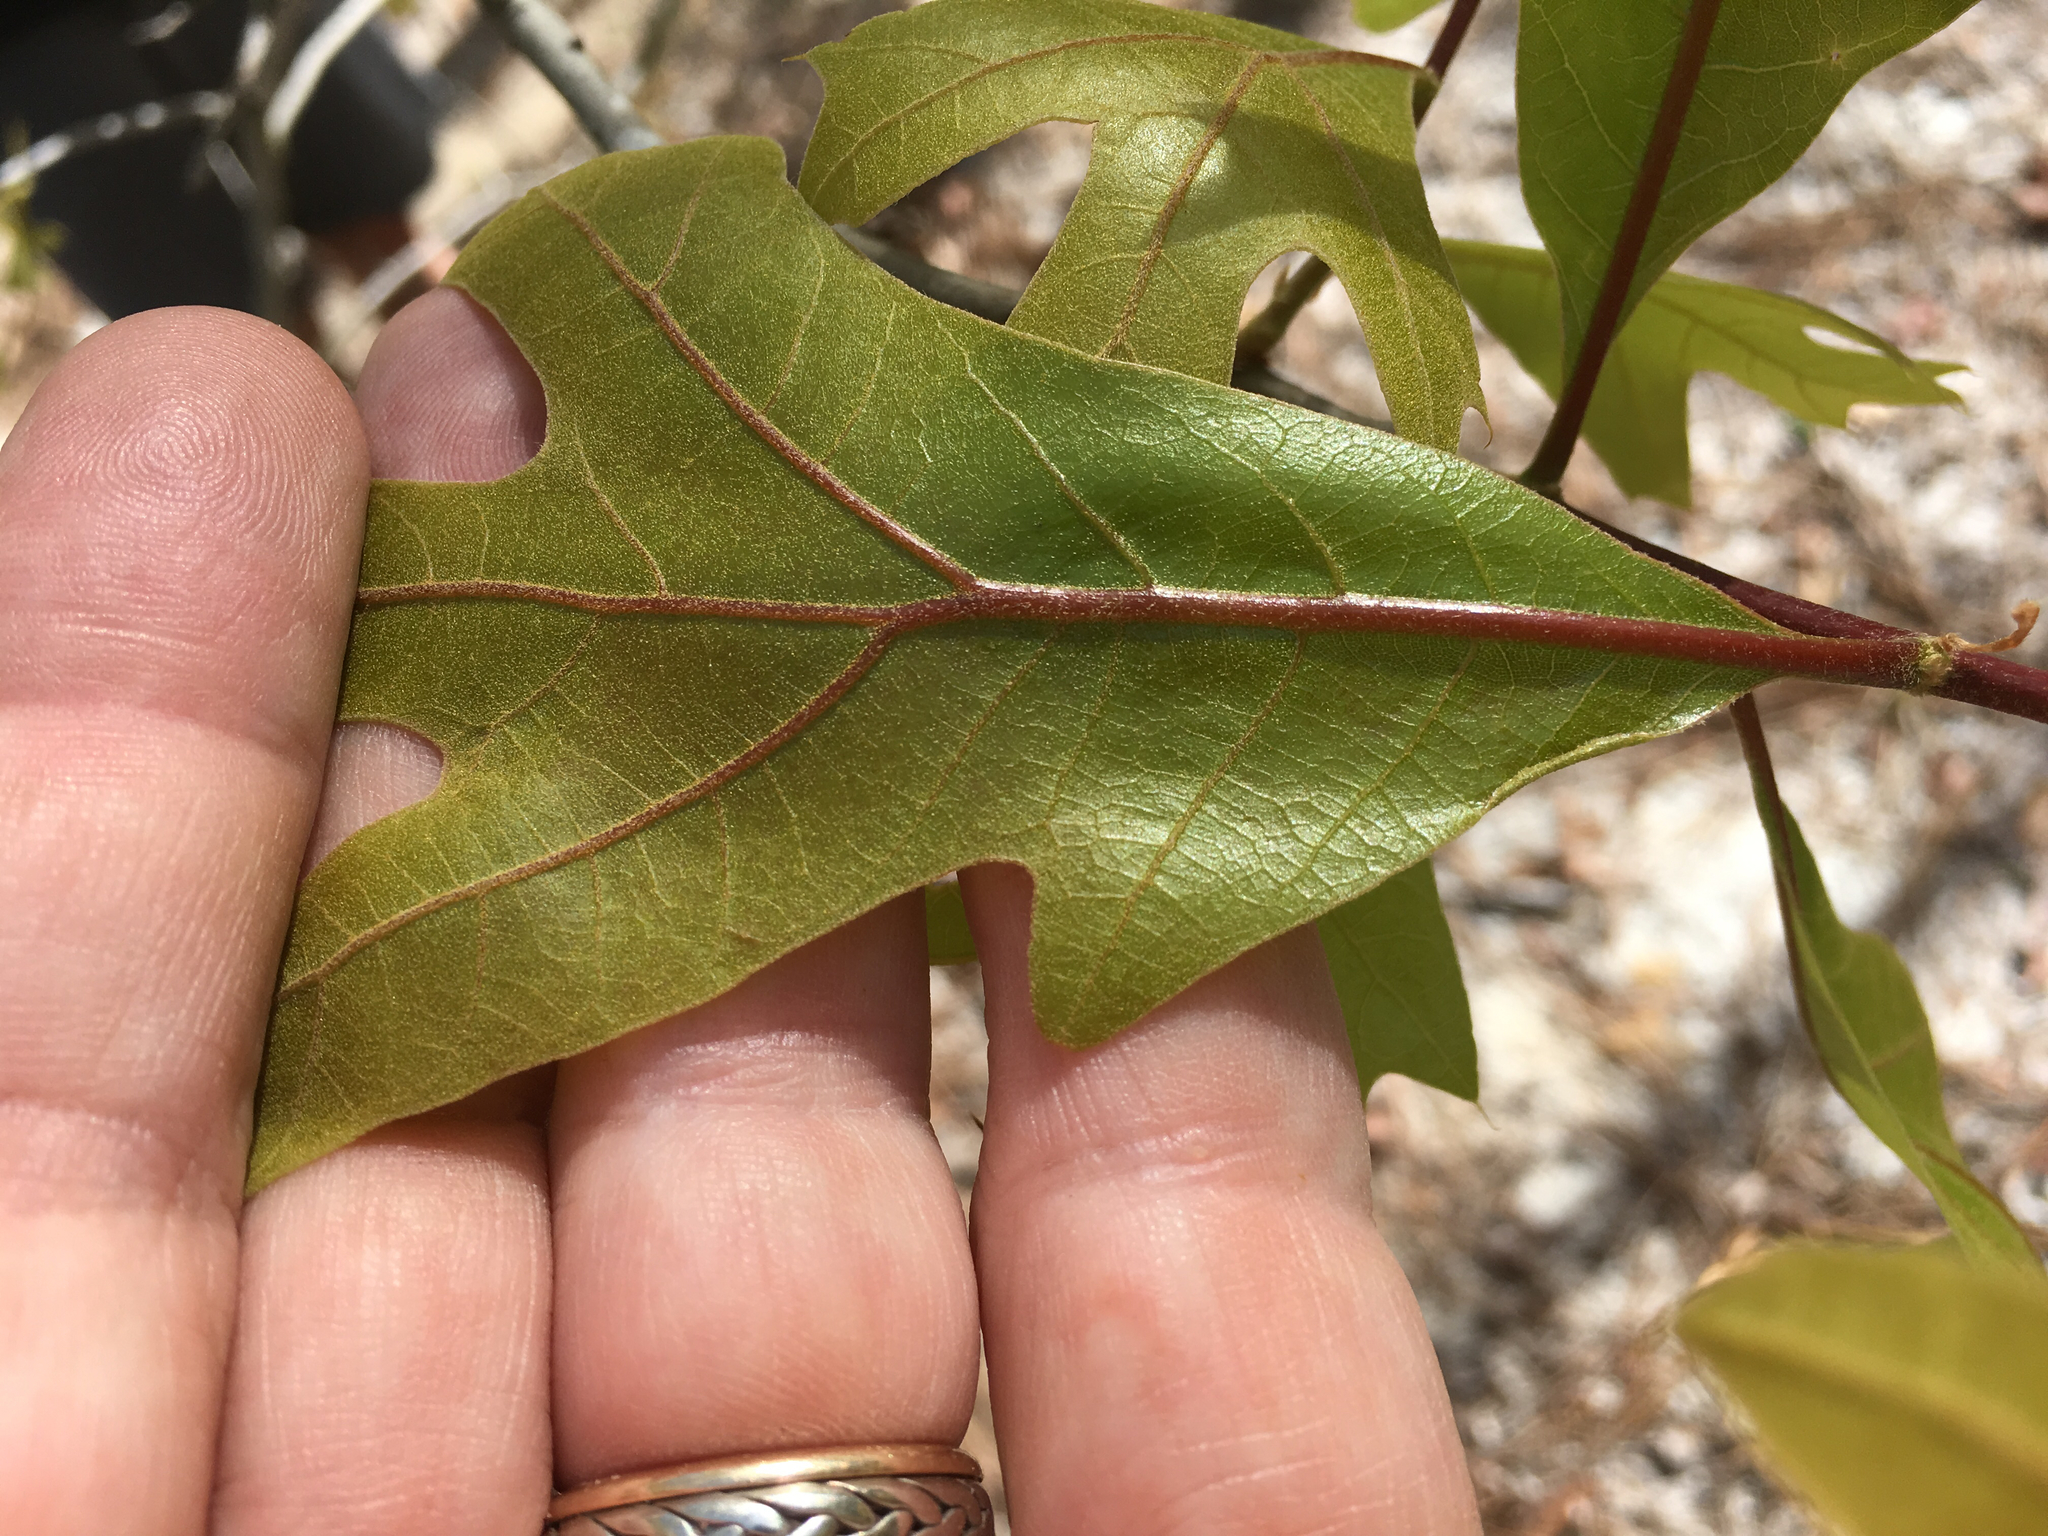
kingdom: Plantae
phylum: Tracheophyta
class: Magnoliopsida
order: Fagales
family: Fagaceae
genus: Quercus
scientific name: Quercus laevis
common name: Turkey oak
